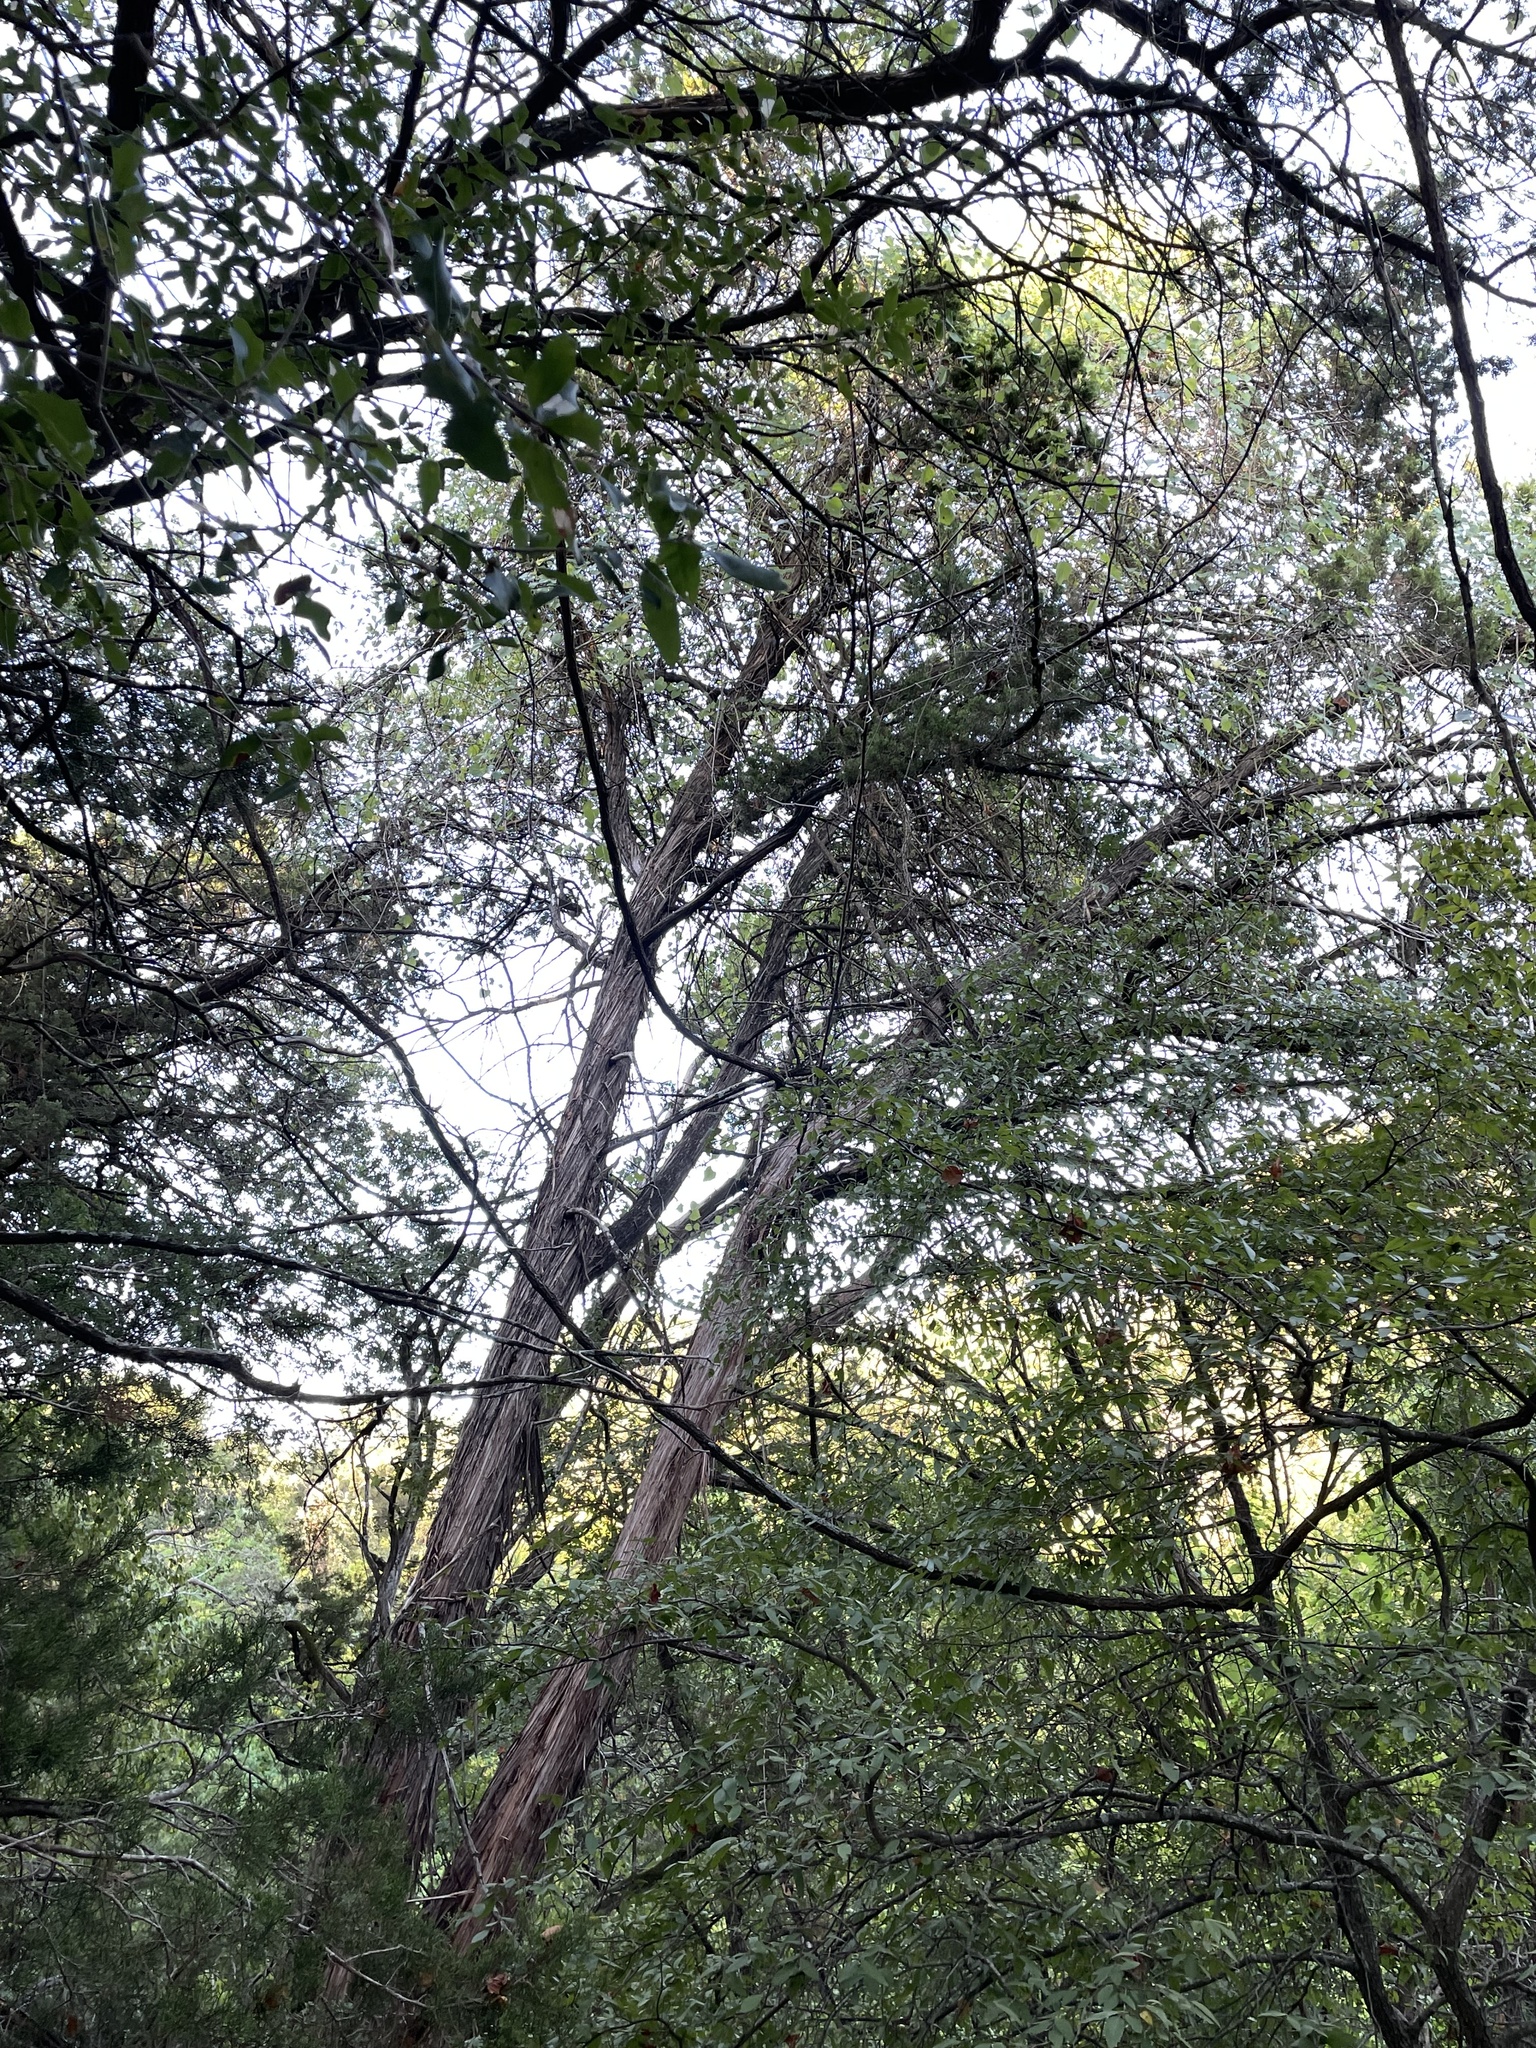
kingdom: Plantae
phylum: Tracheophyta
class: Pinopsida
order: Pinales
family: Cupressaceae
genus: Juniperus
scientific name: Juniperus ashei
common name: Mexican juniper
